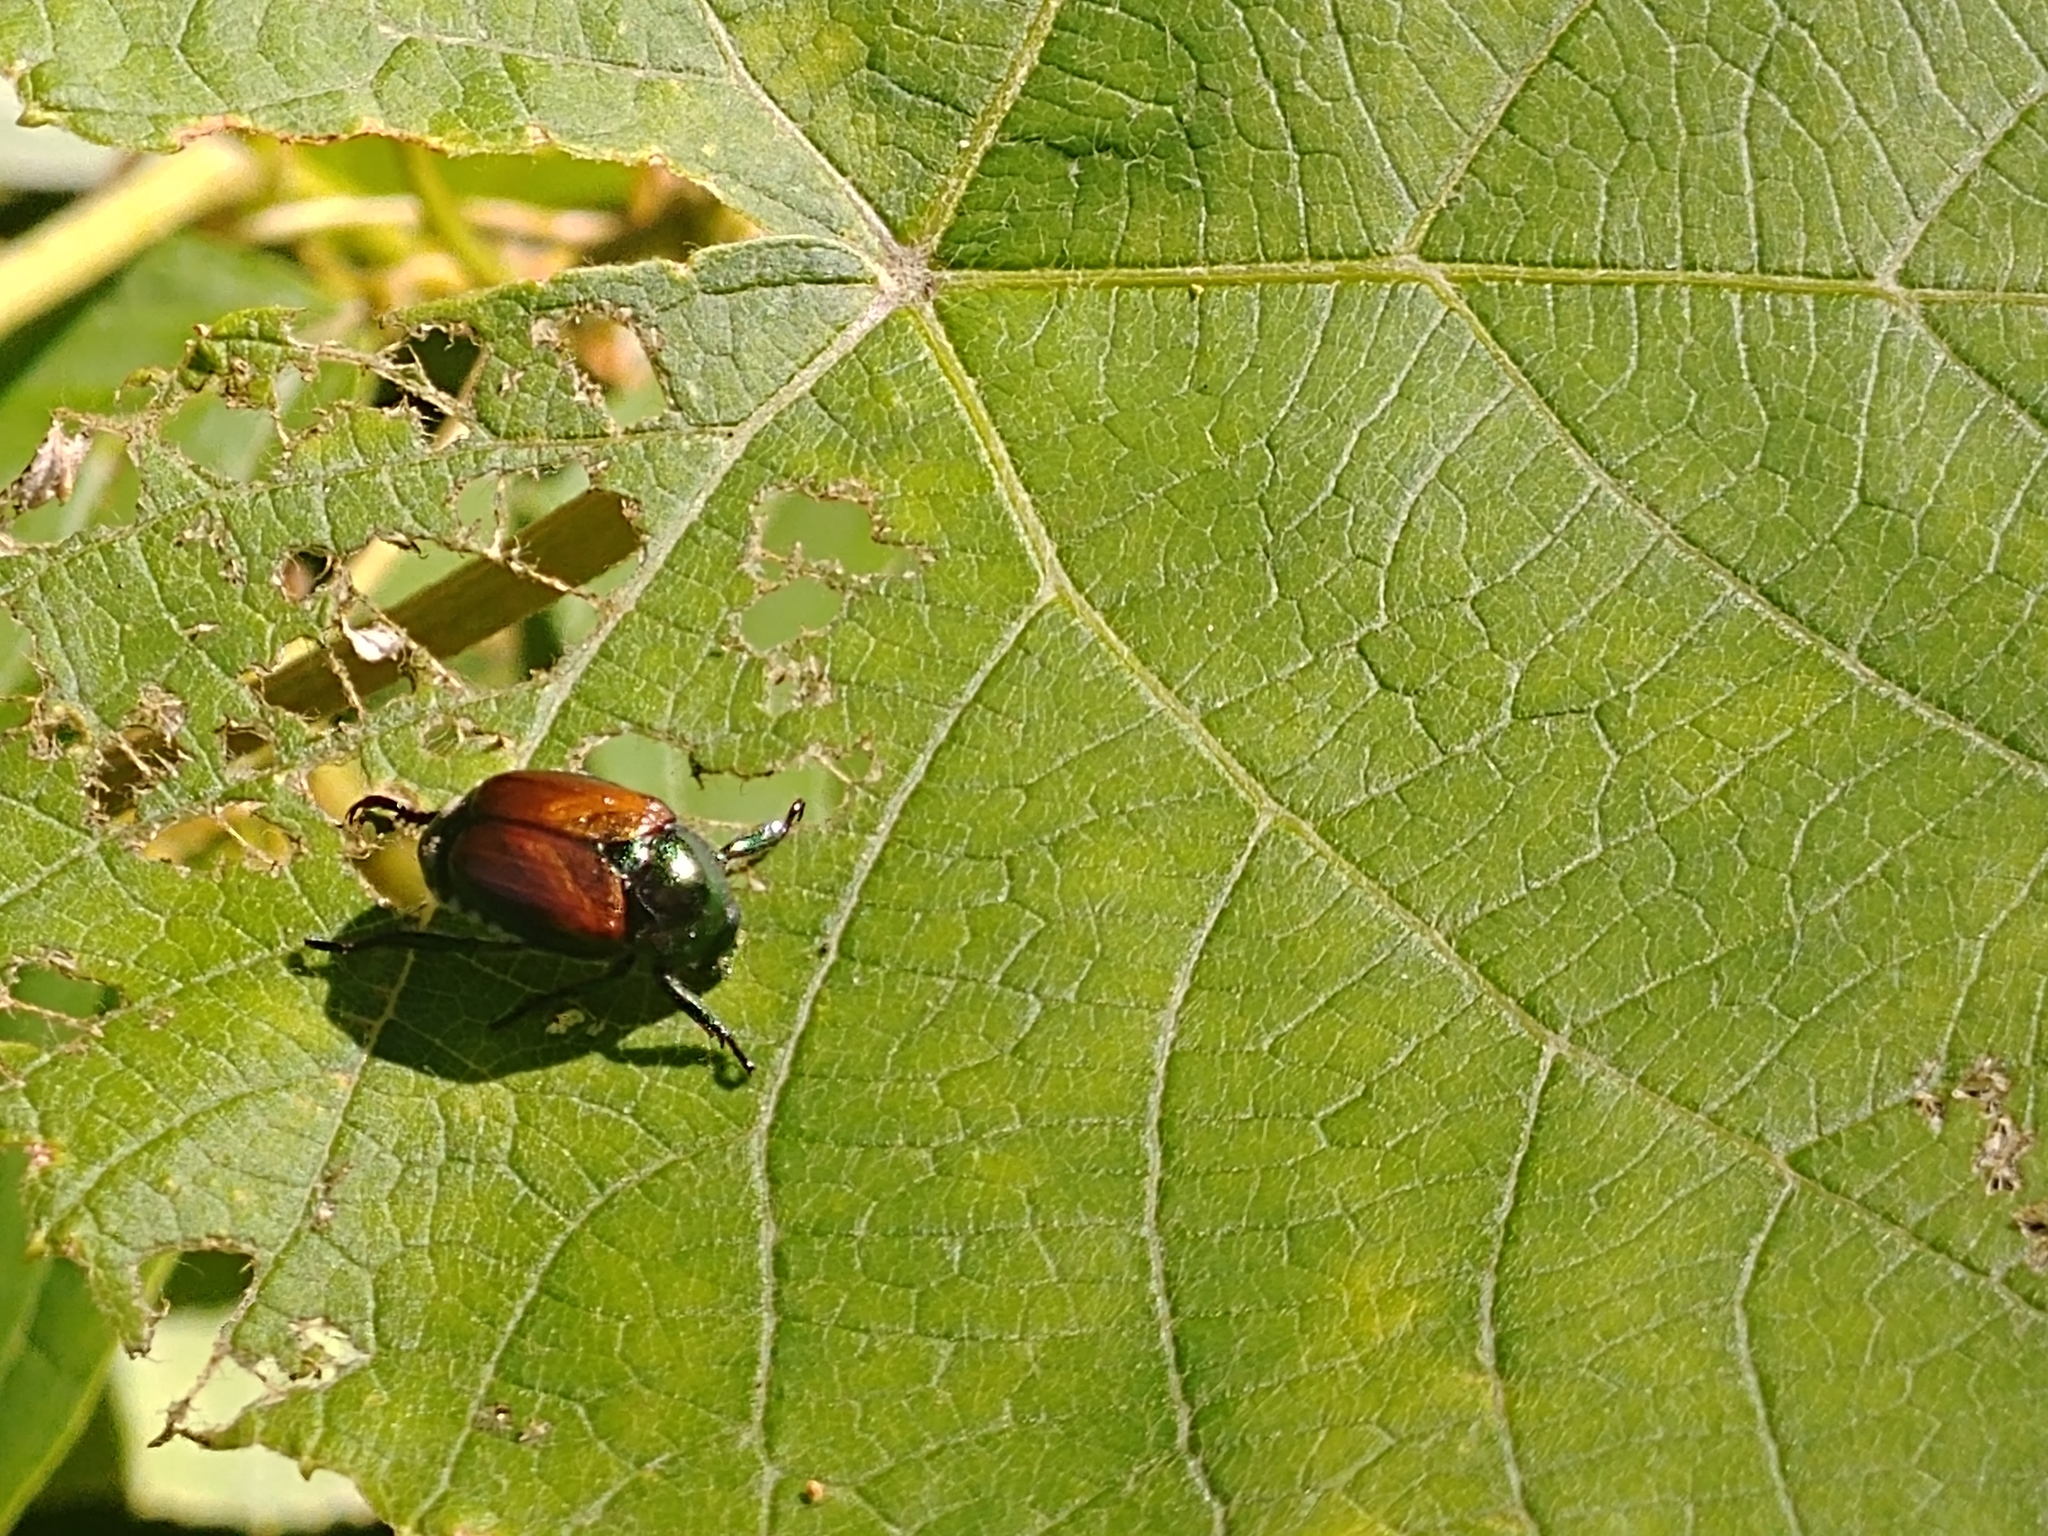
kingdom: Animalia
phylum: Arthropoda
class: Insecta
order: Coleoptera
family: Scarabaeidae
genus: Popillia
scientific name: Popillia japonica
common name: Japanese beetle
